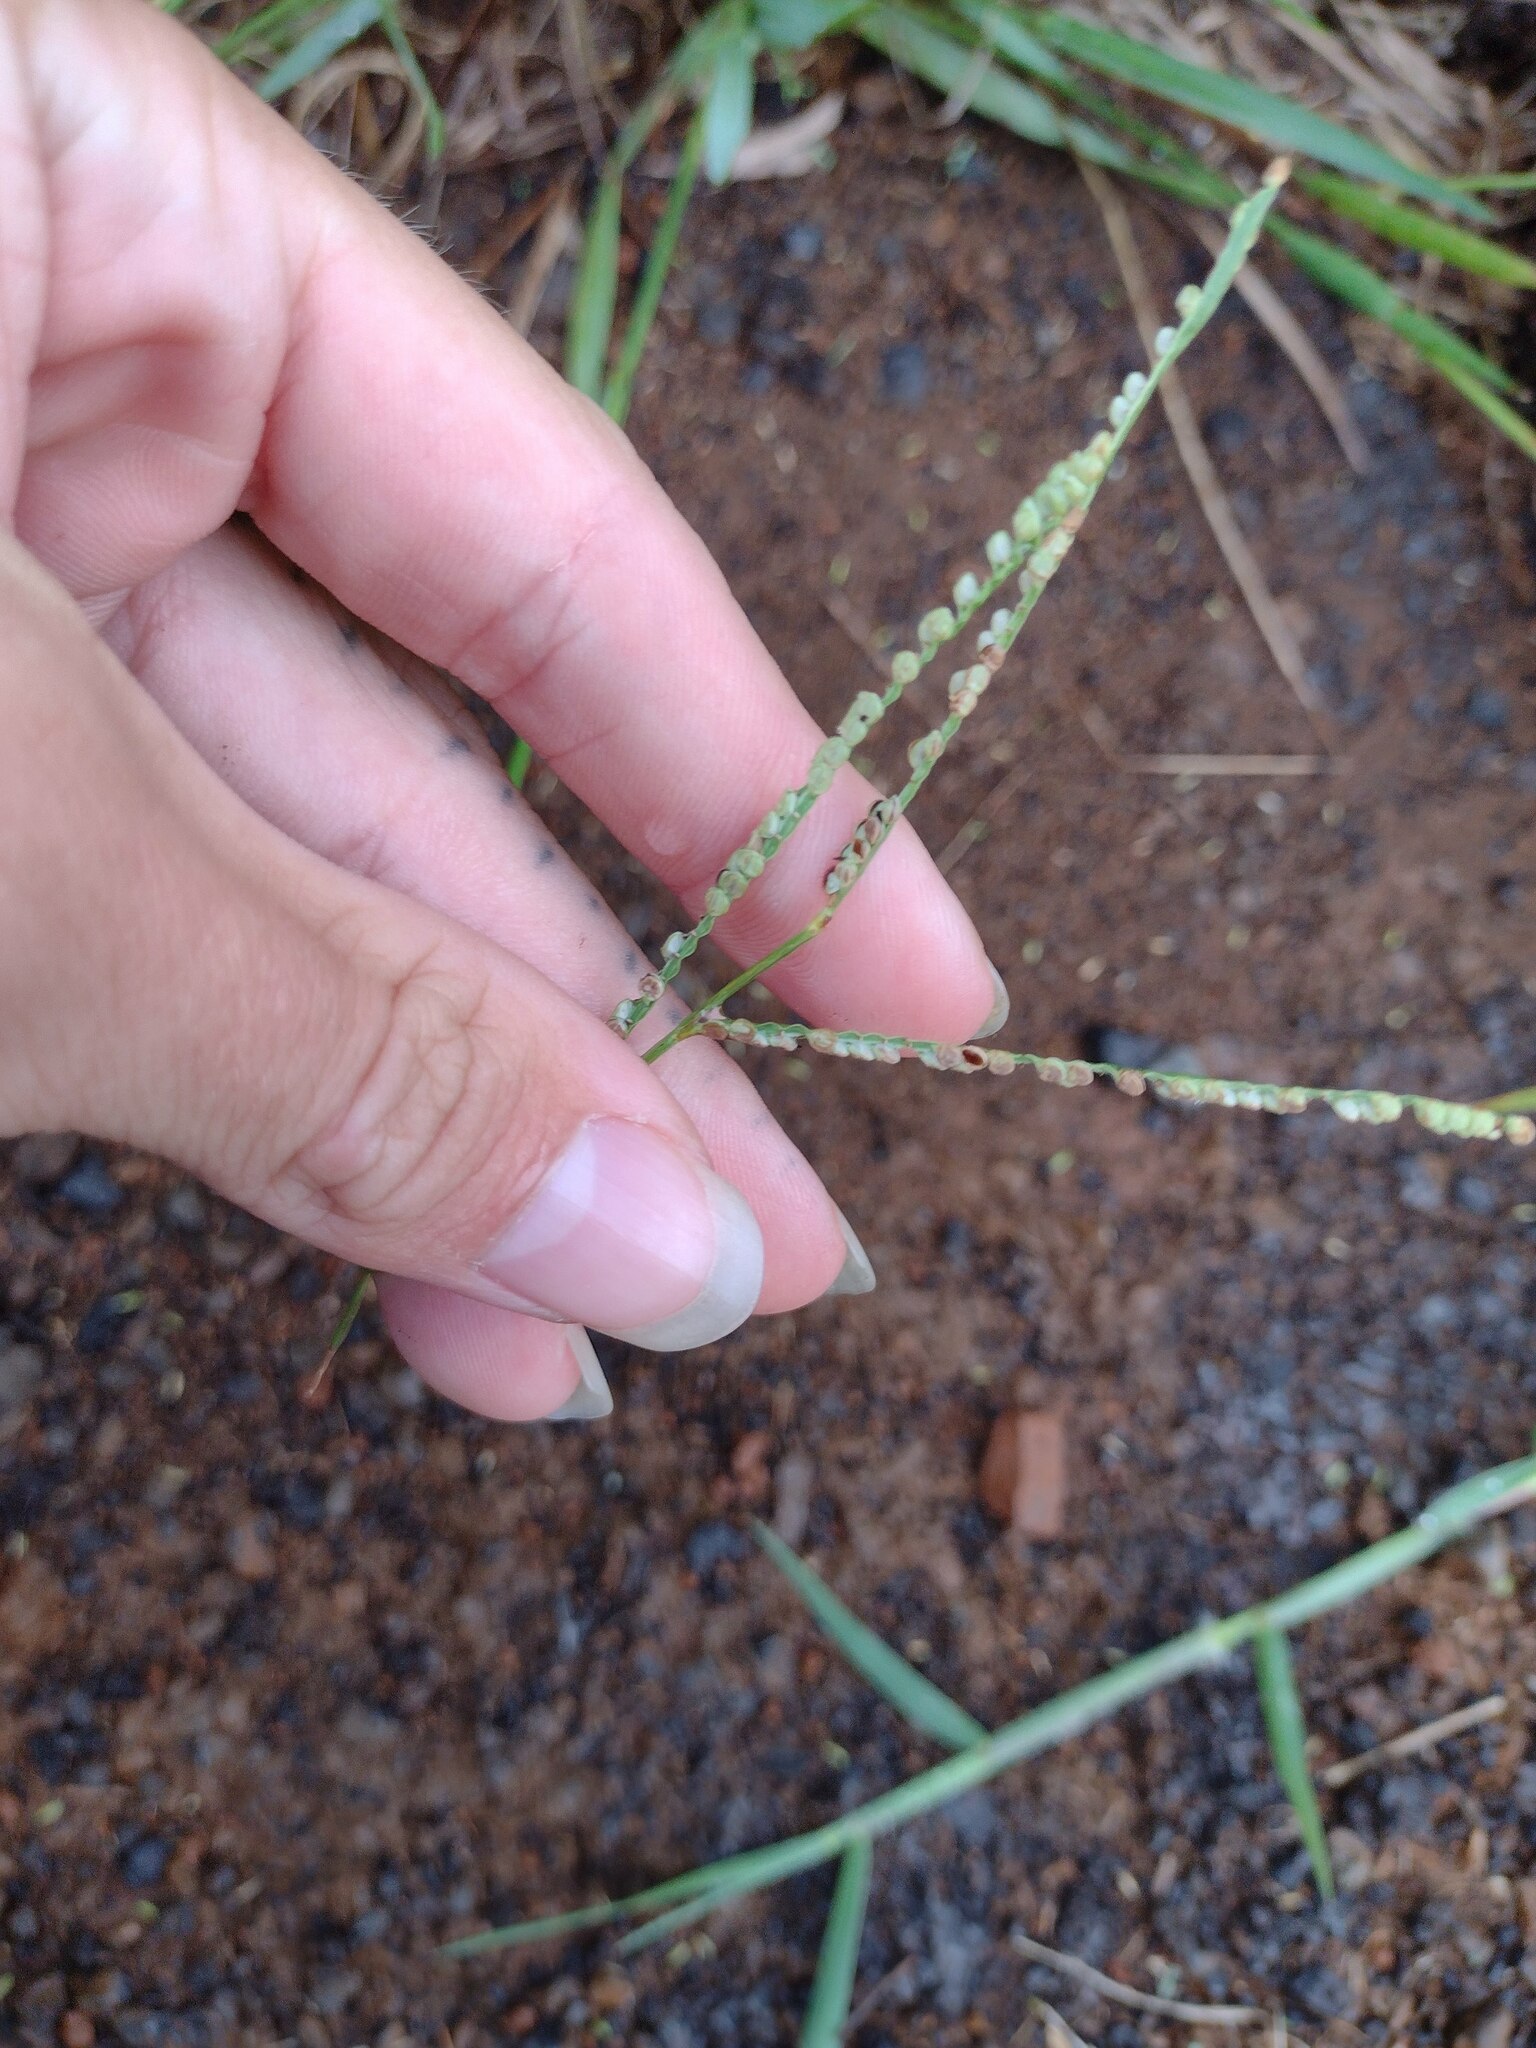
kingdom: Plantae
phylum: Tracheophyta
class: Liliopsida
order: Poales
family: Poaceae
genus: Paspalum
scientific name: Paspalum scrobiculatum
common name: Kodo millet
